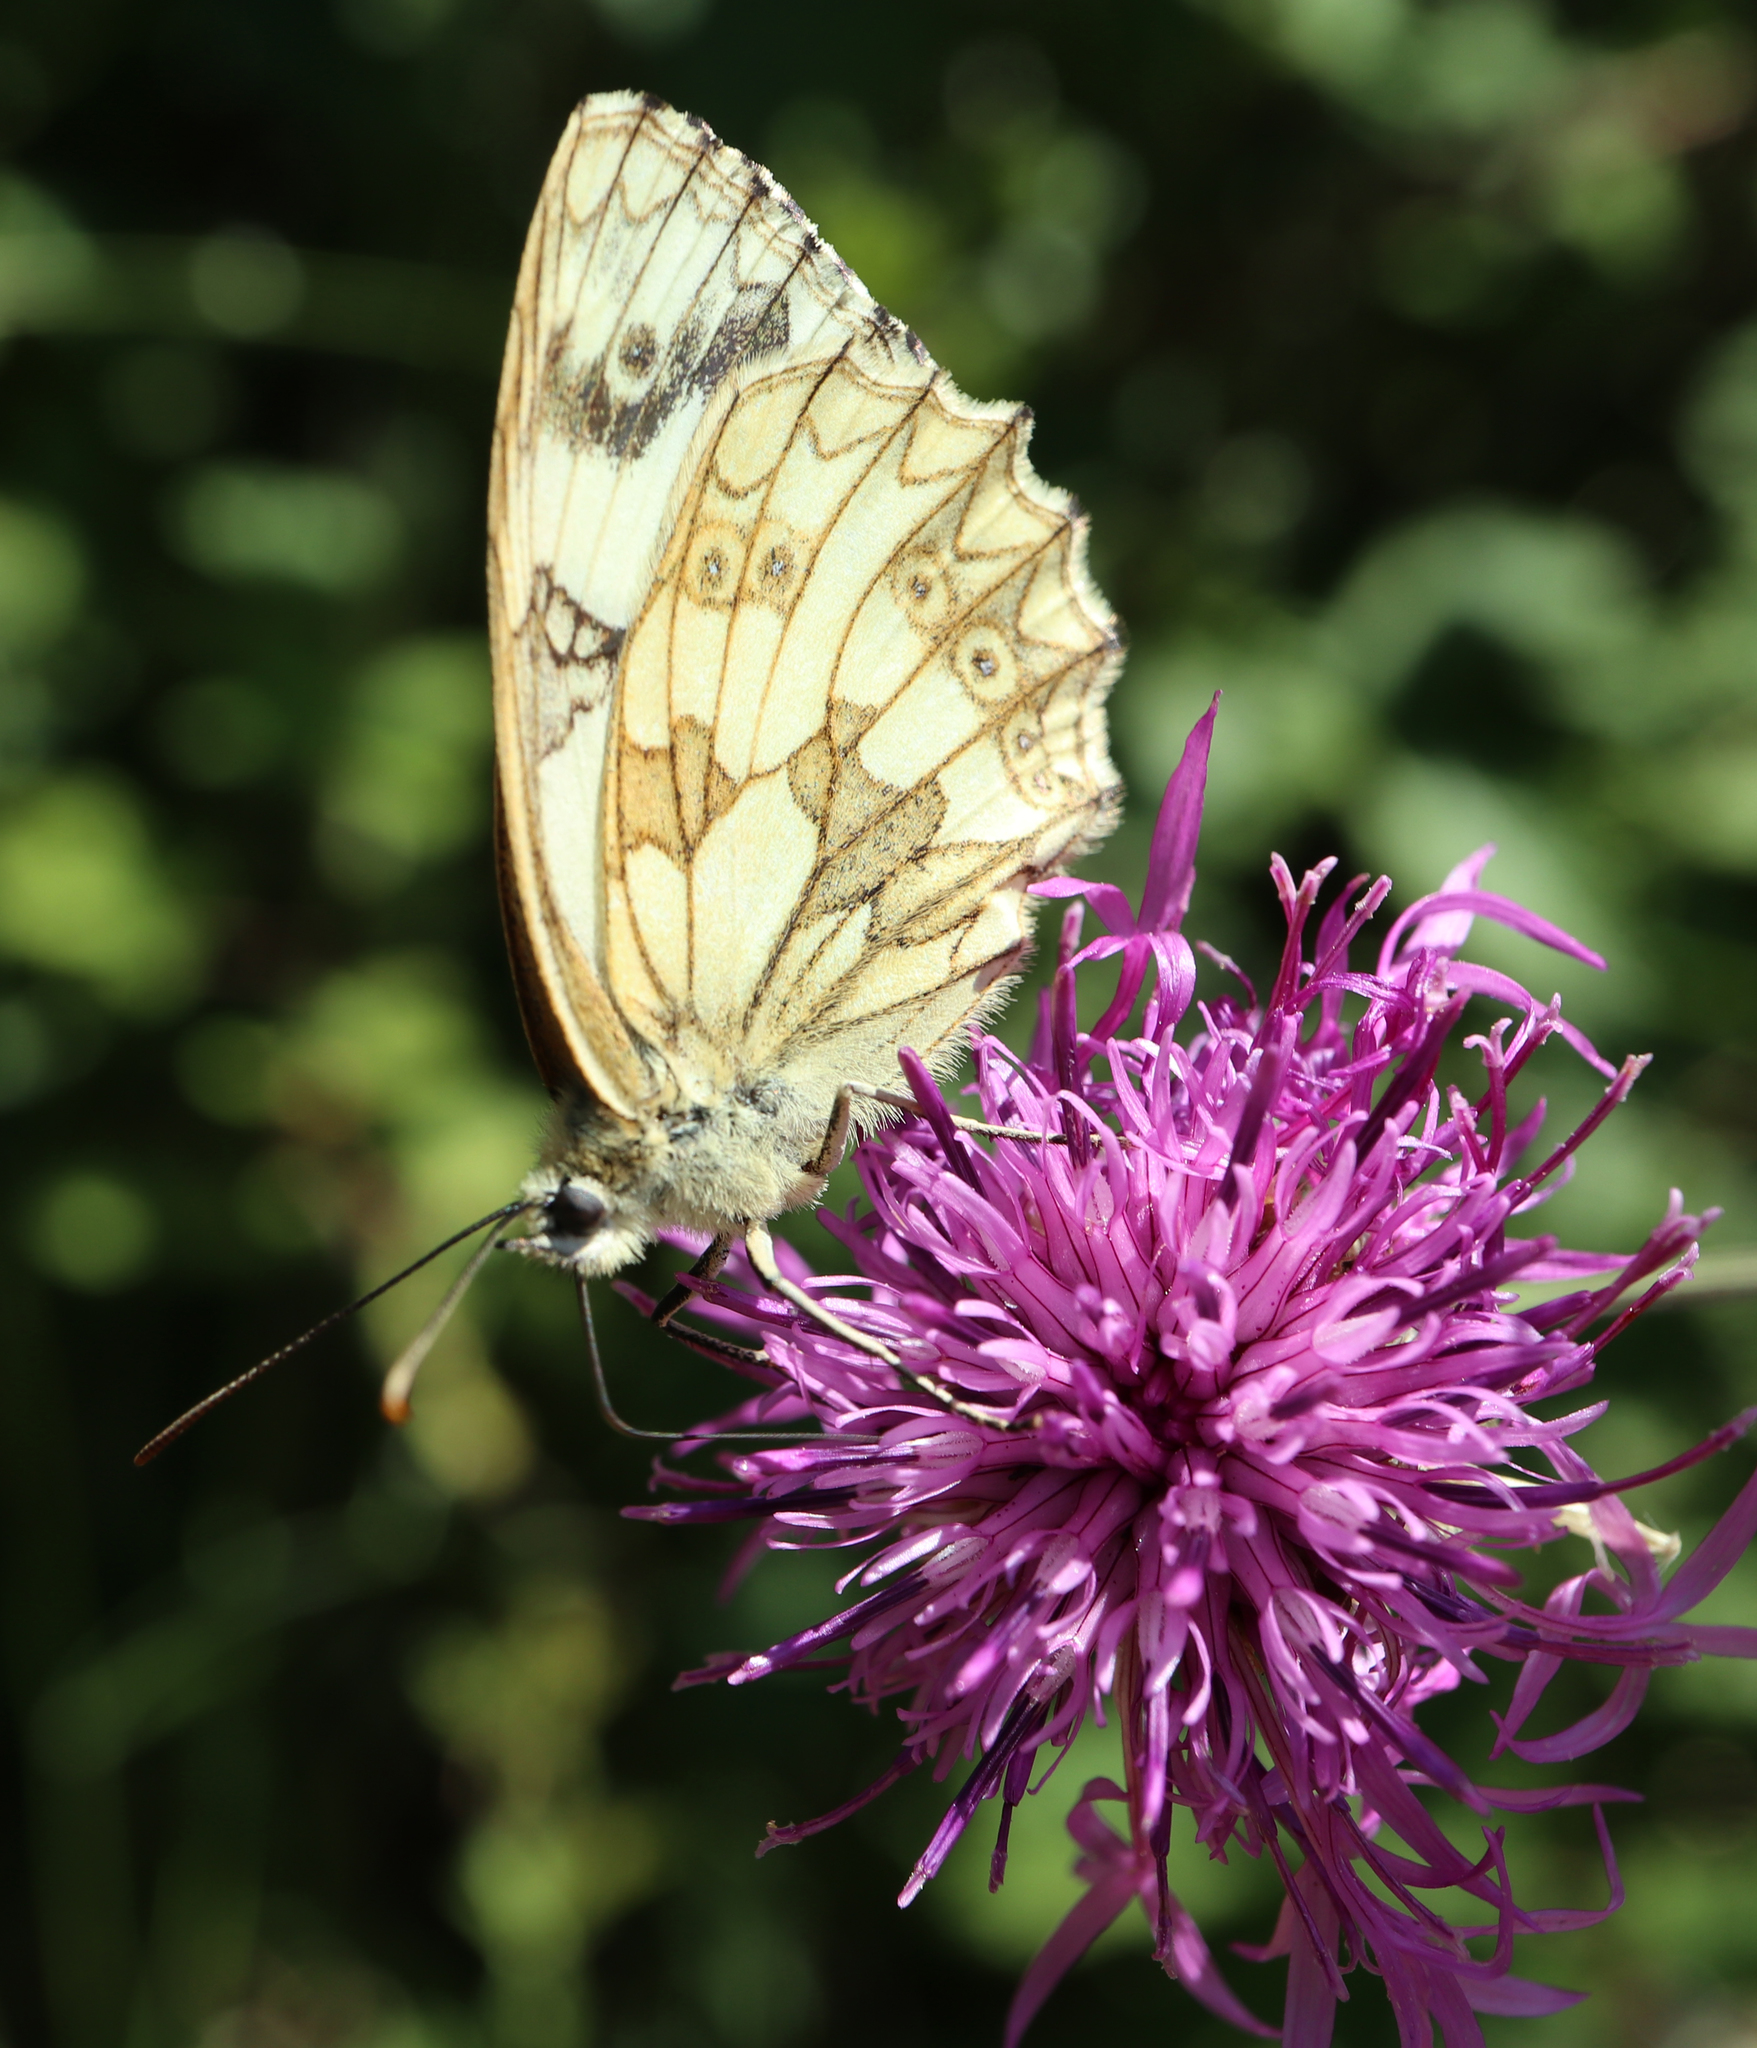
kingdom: Animalia
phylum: Arthropoda
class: Insecta
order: Lepidoptera
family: Nymphalidae
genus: Melanargia
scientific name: Melanargia galathea
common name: Marbled white
